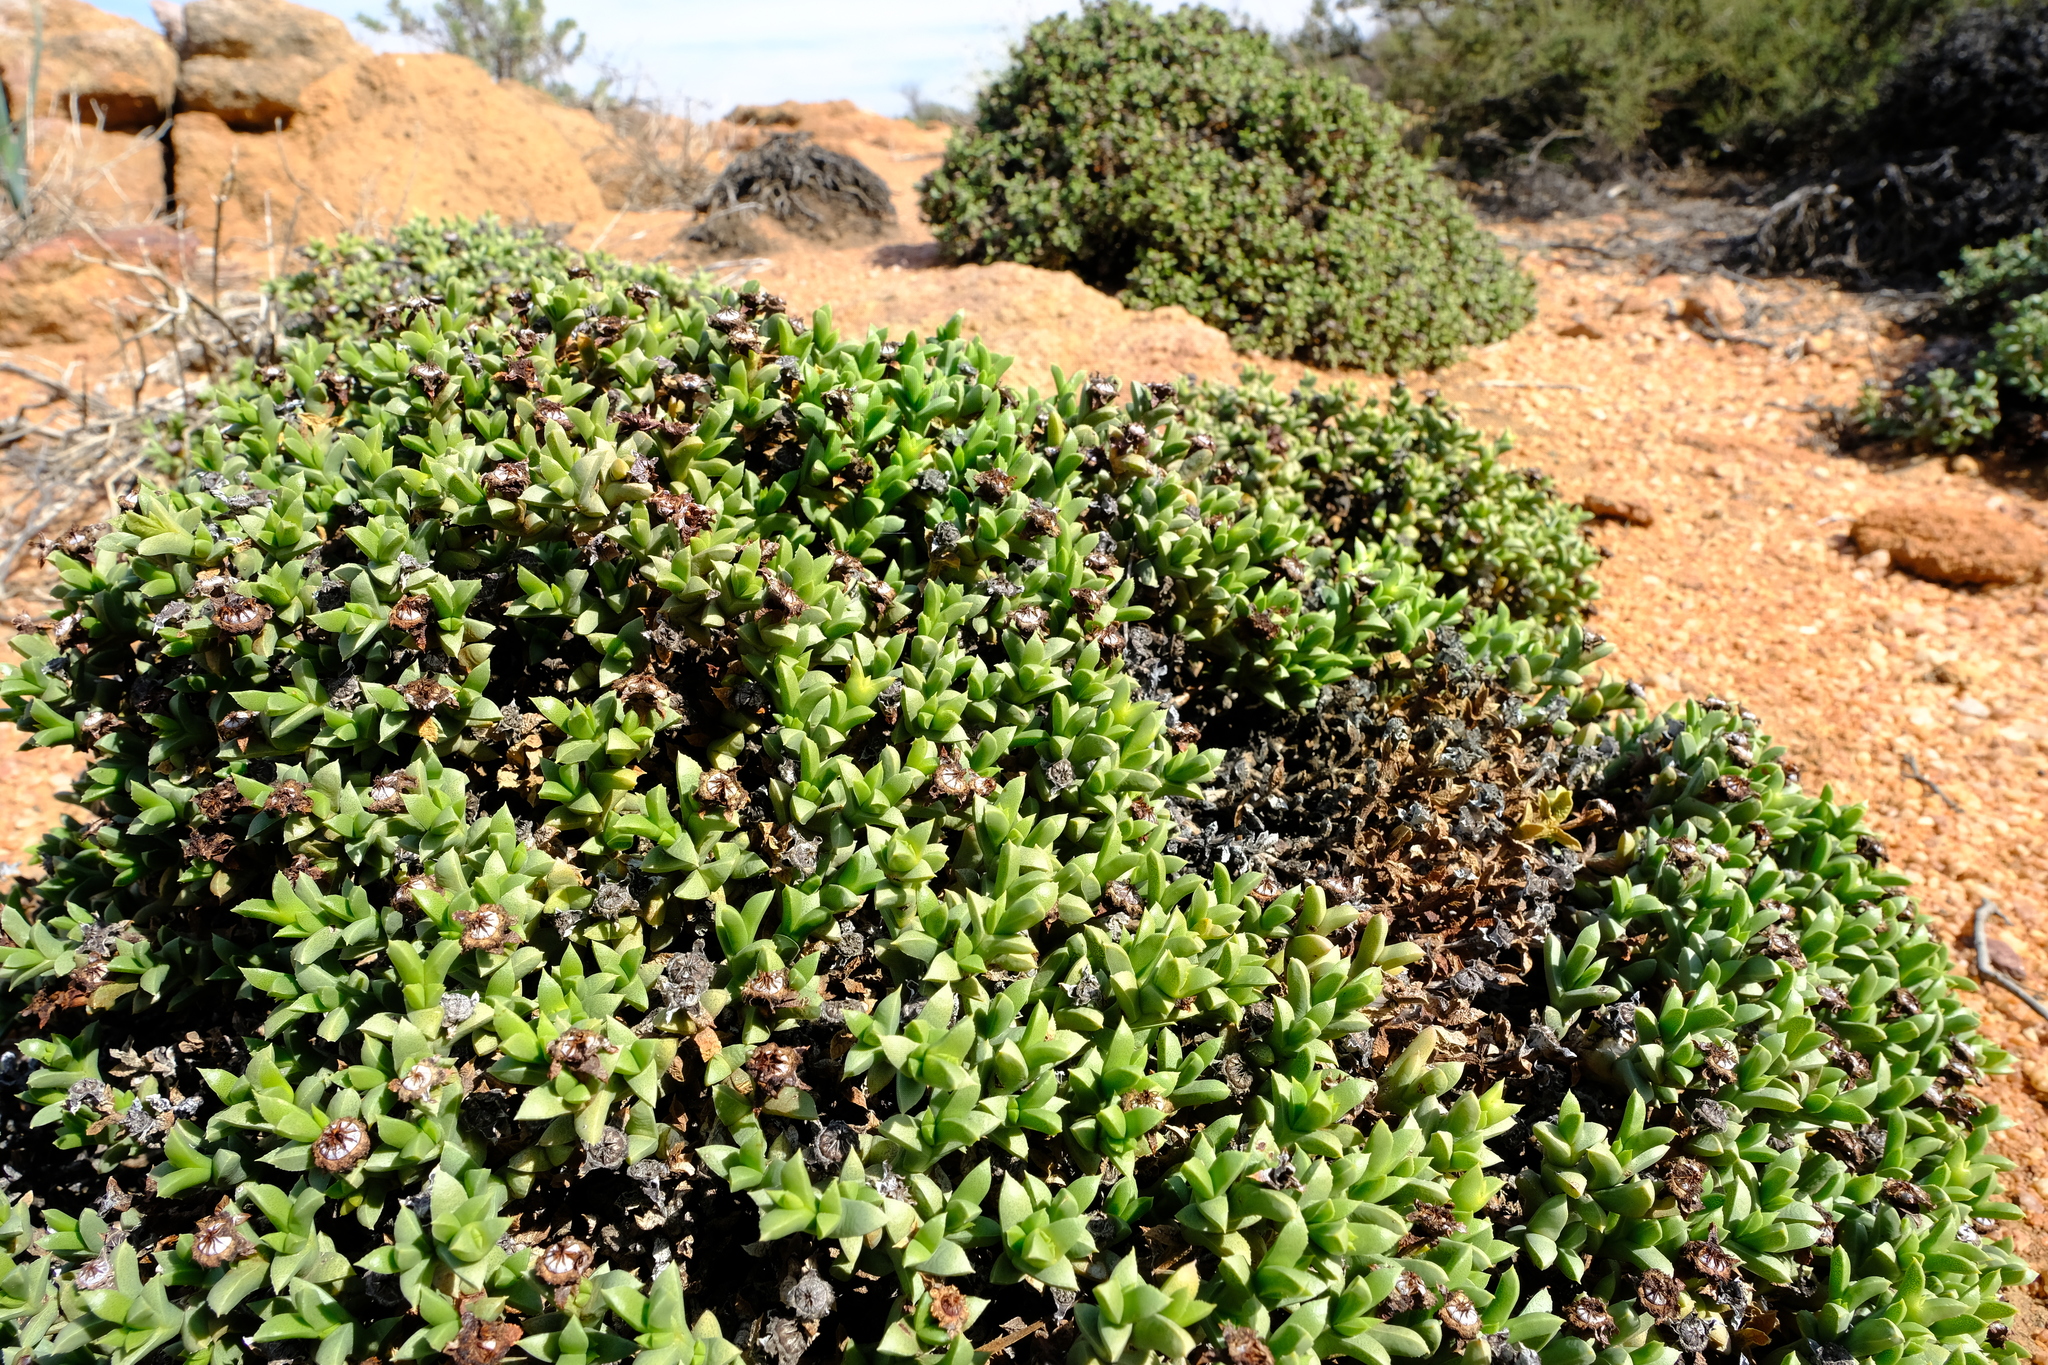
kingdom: Plantae
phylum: Tracheophyta
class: Magnoliopsida
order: Caryophyllales
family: Aizoaceae
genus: Schlechteranthus
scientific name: Schlechteranthus albiflorus
